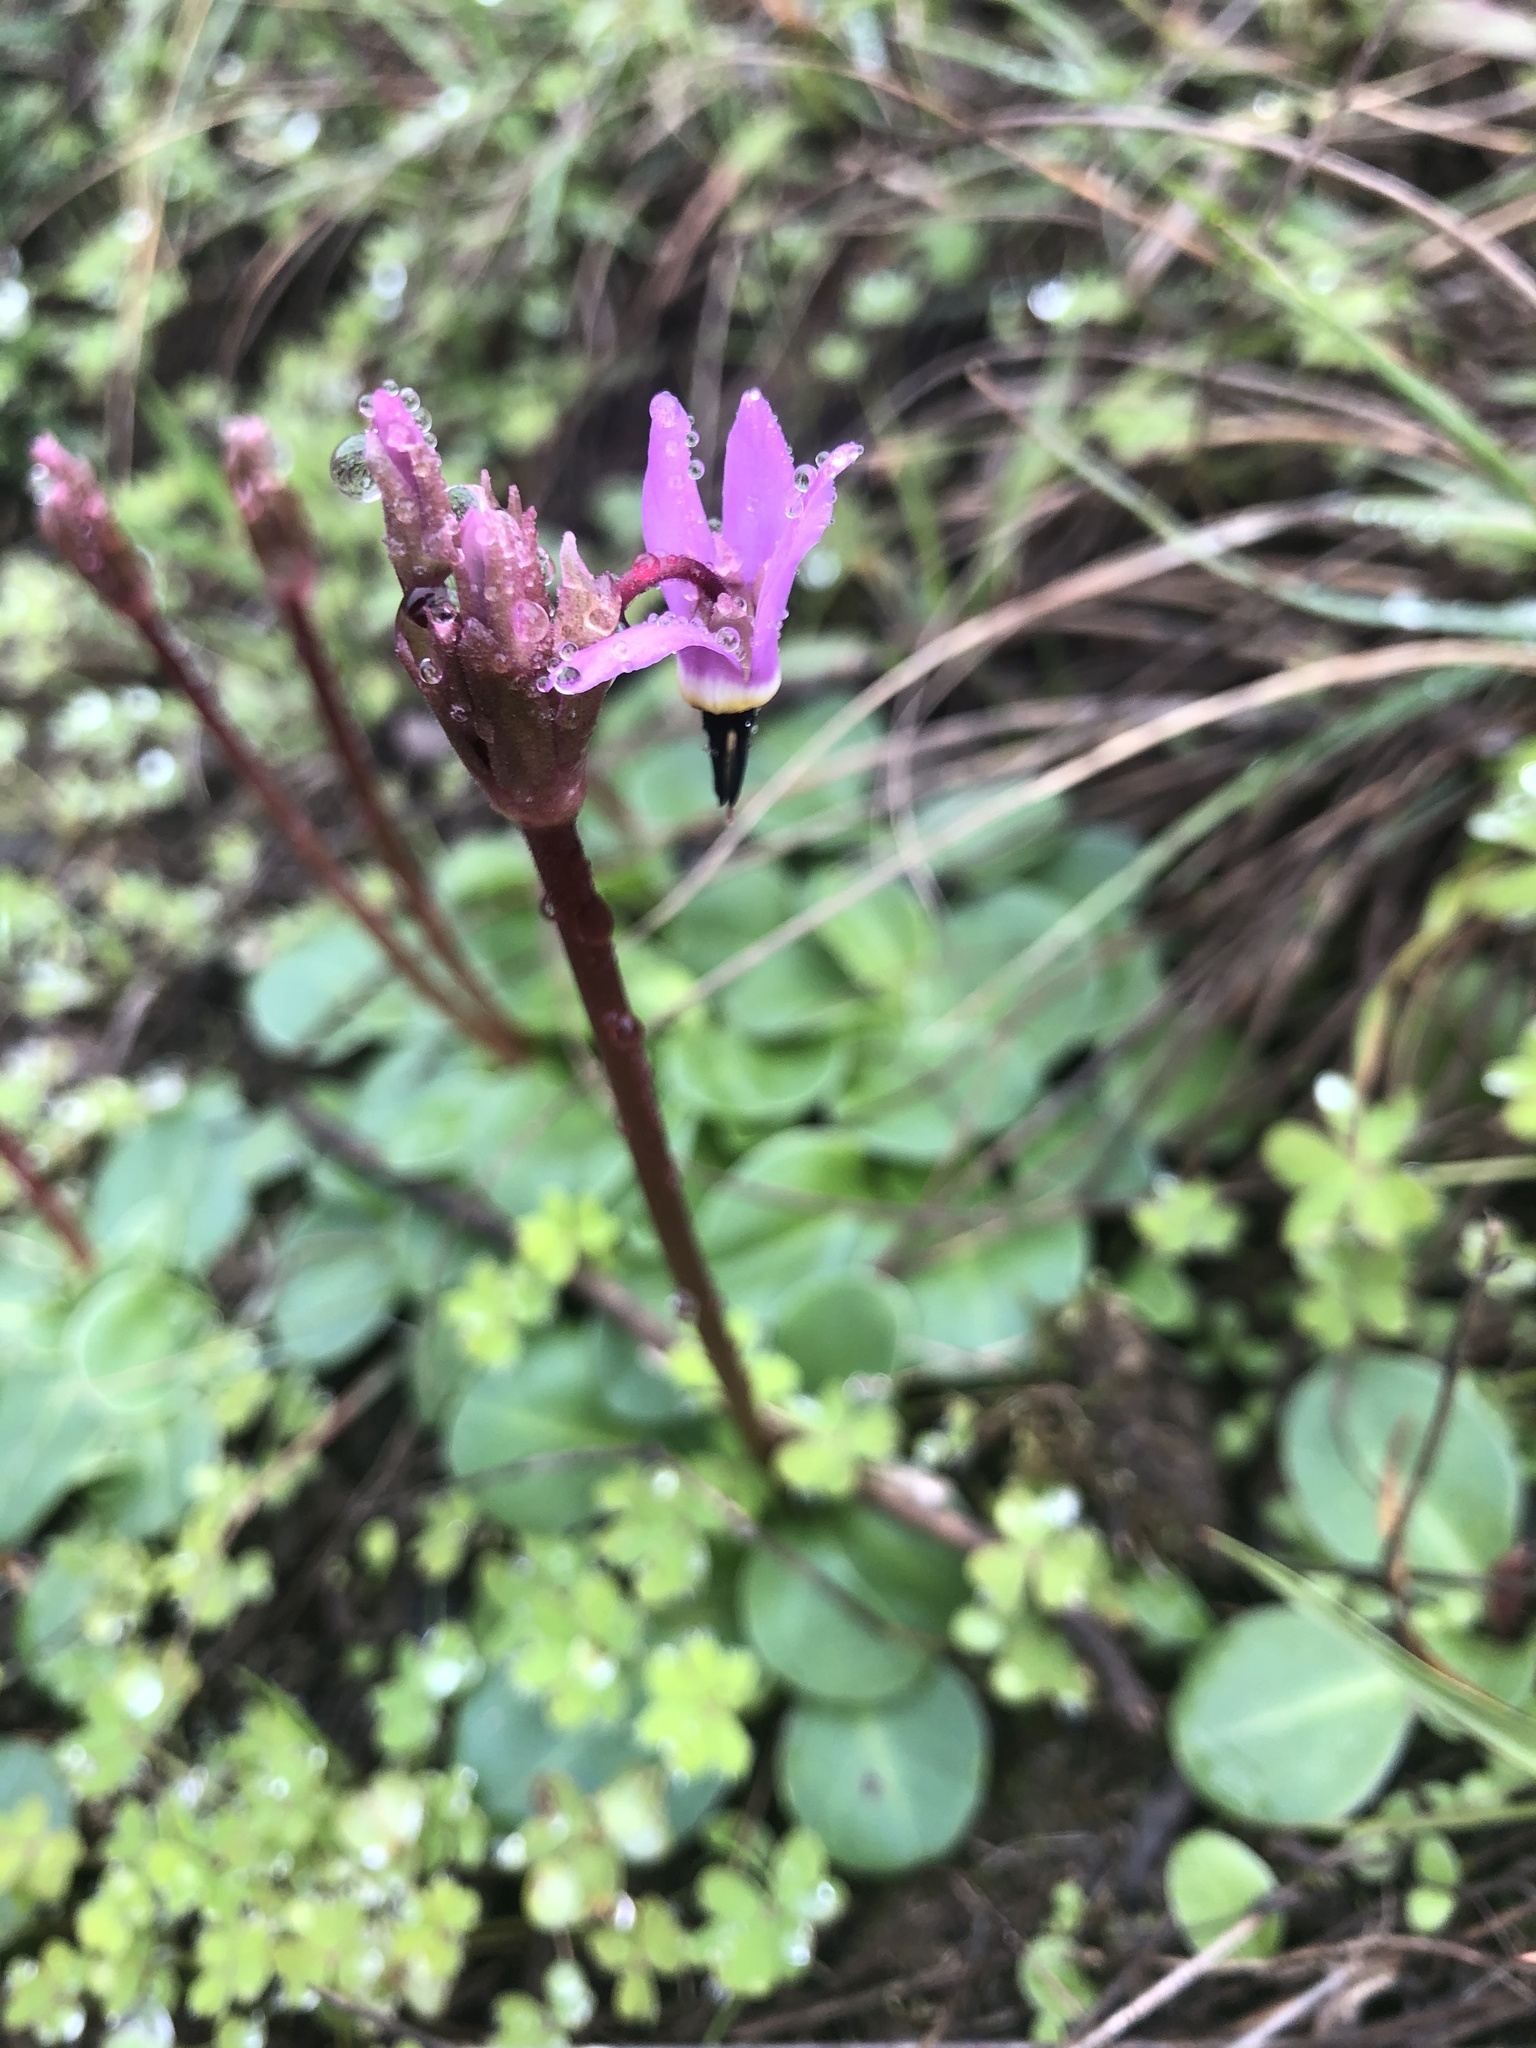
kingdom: Plantae
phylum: Tracheophyta
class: Magnoliopsida
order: Ericales
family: Primulaceae
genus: Dodecatheon
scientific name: Dodecatheon hendersonii
